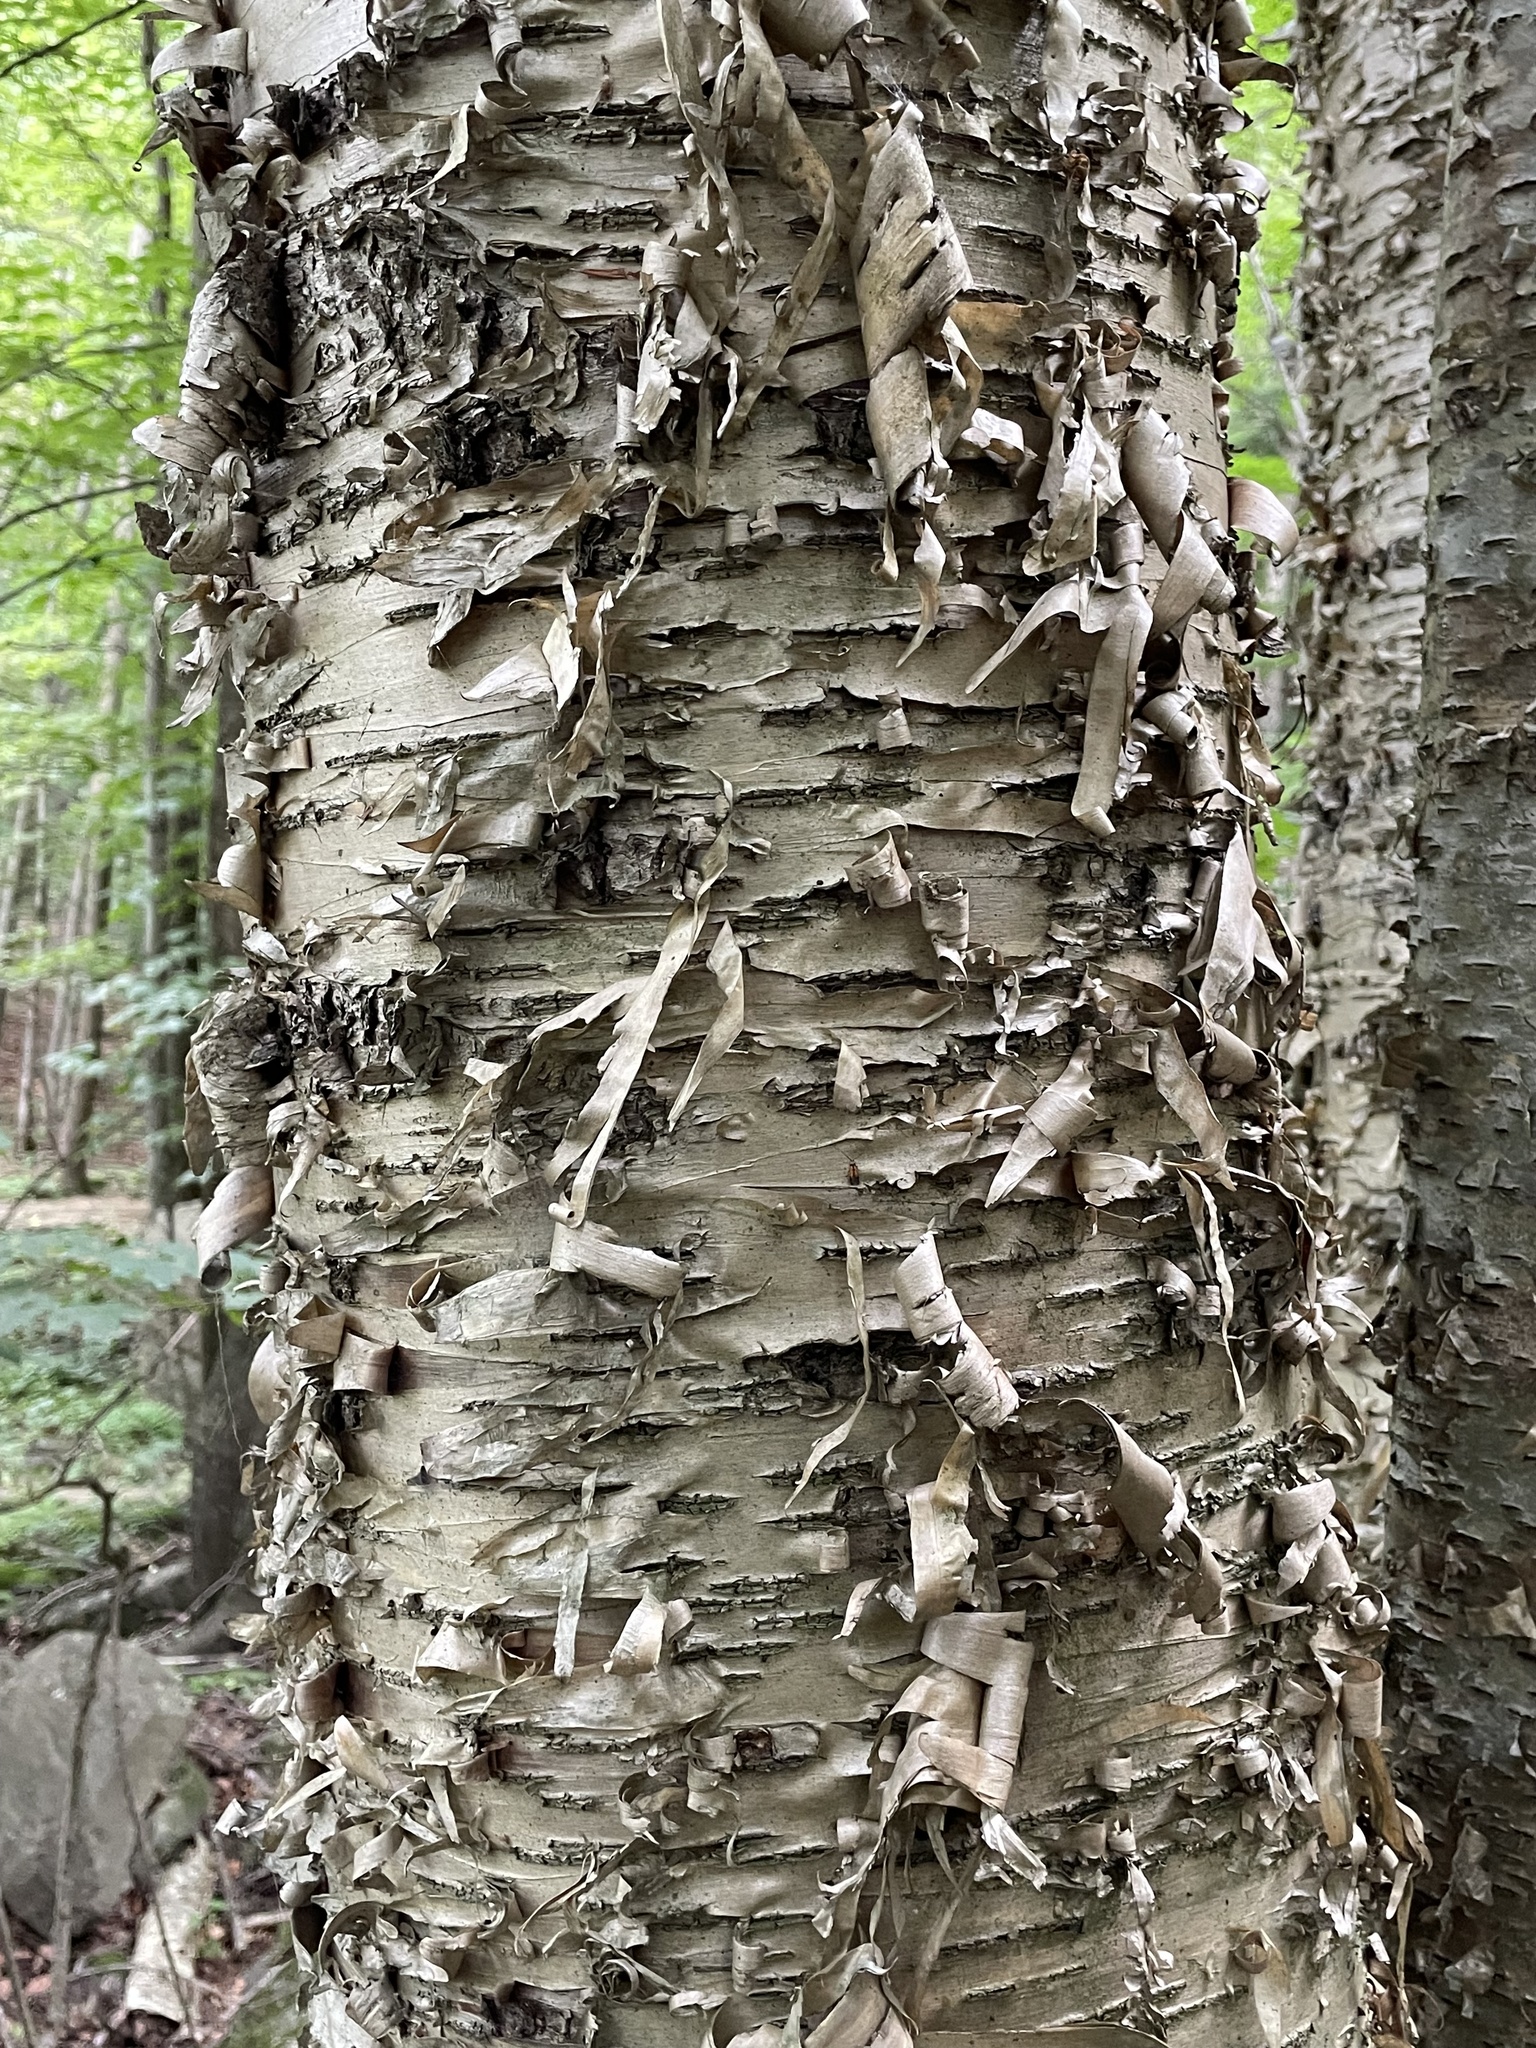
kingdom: Plantae
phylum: Tracheophyta
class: Magnoliopsida
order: Fagales
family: Betulaceae
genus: Betula
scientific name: Betula alleghaniensis
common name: Yellow birch
